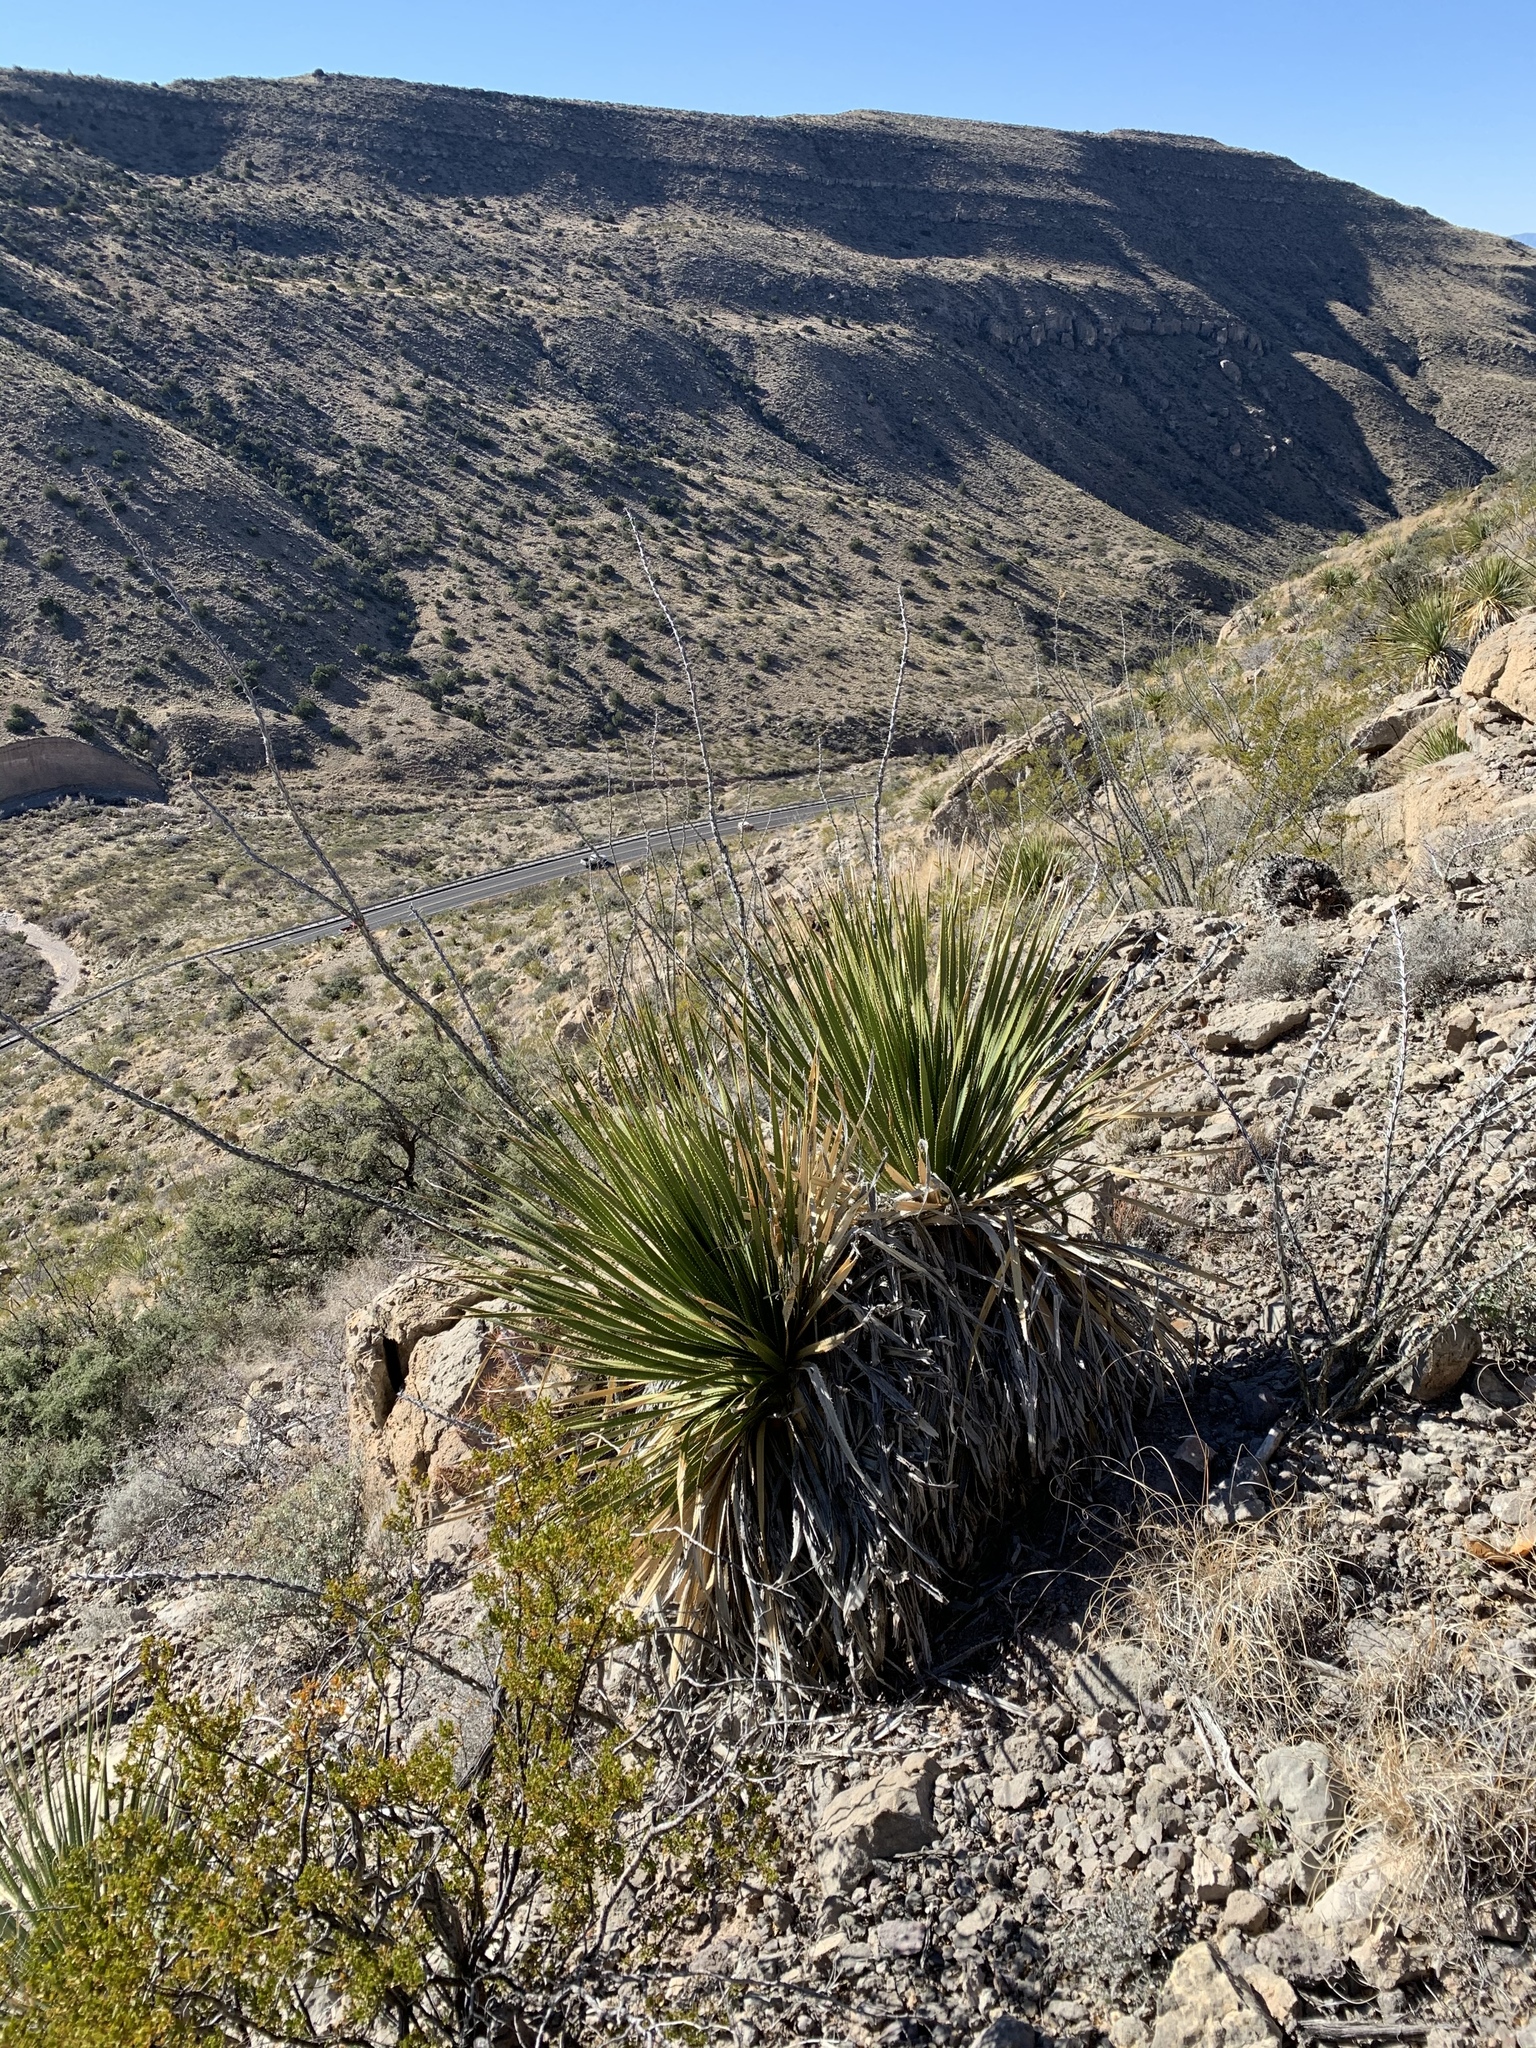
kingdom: Plantae
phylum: Tracheophyta
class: Liliopsida
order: Asparagales
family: Asparagaceae
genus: Dasylirion
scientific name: Dasylirion wheeleri
